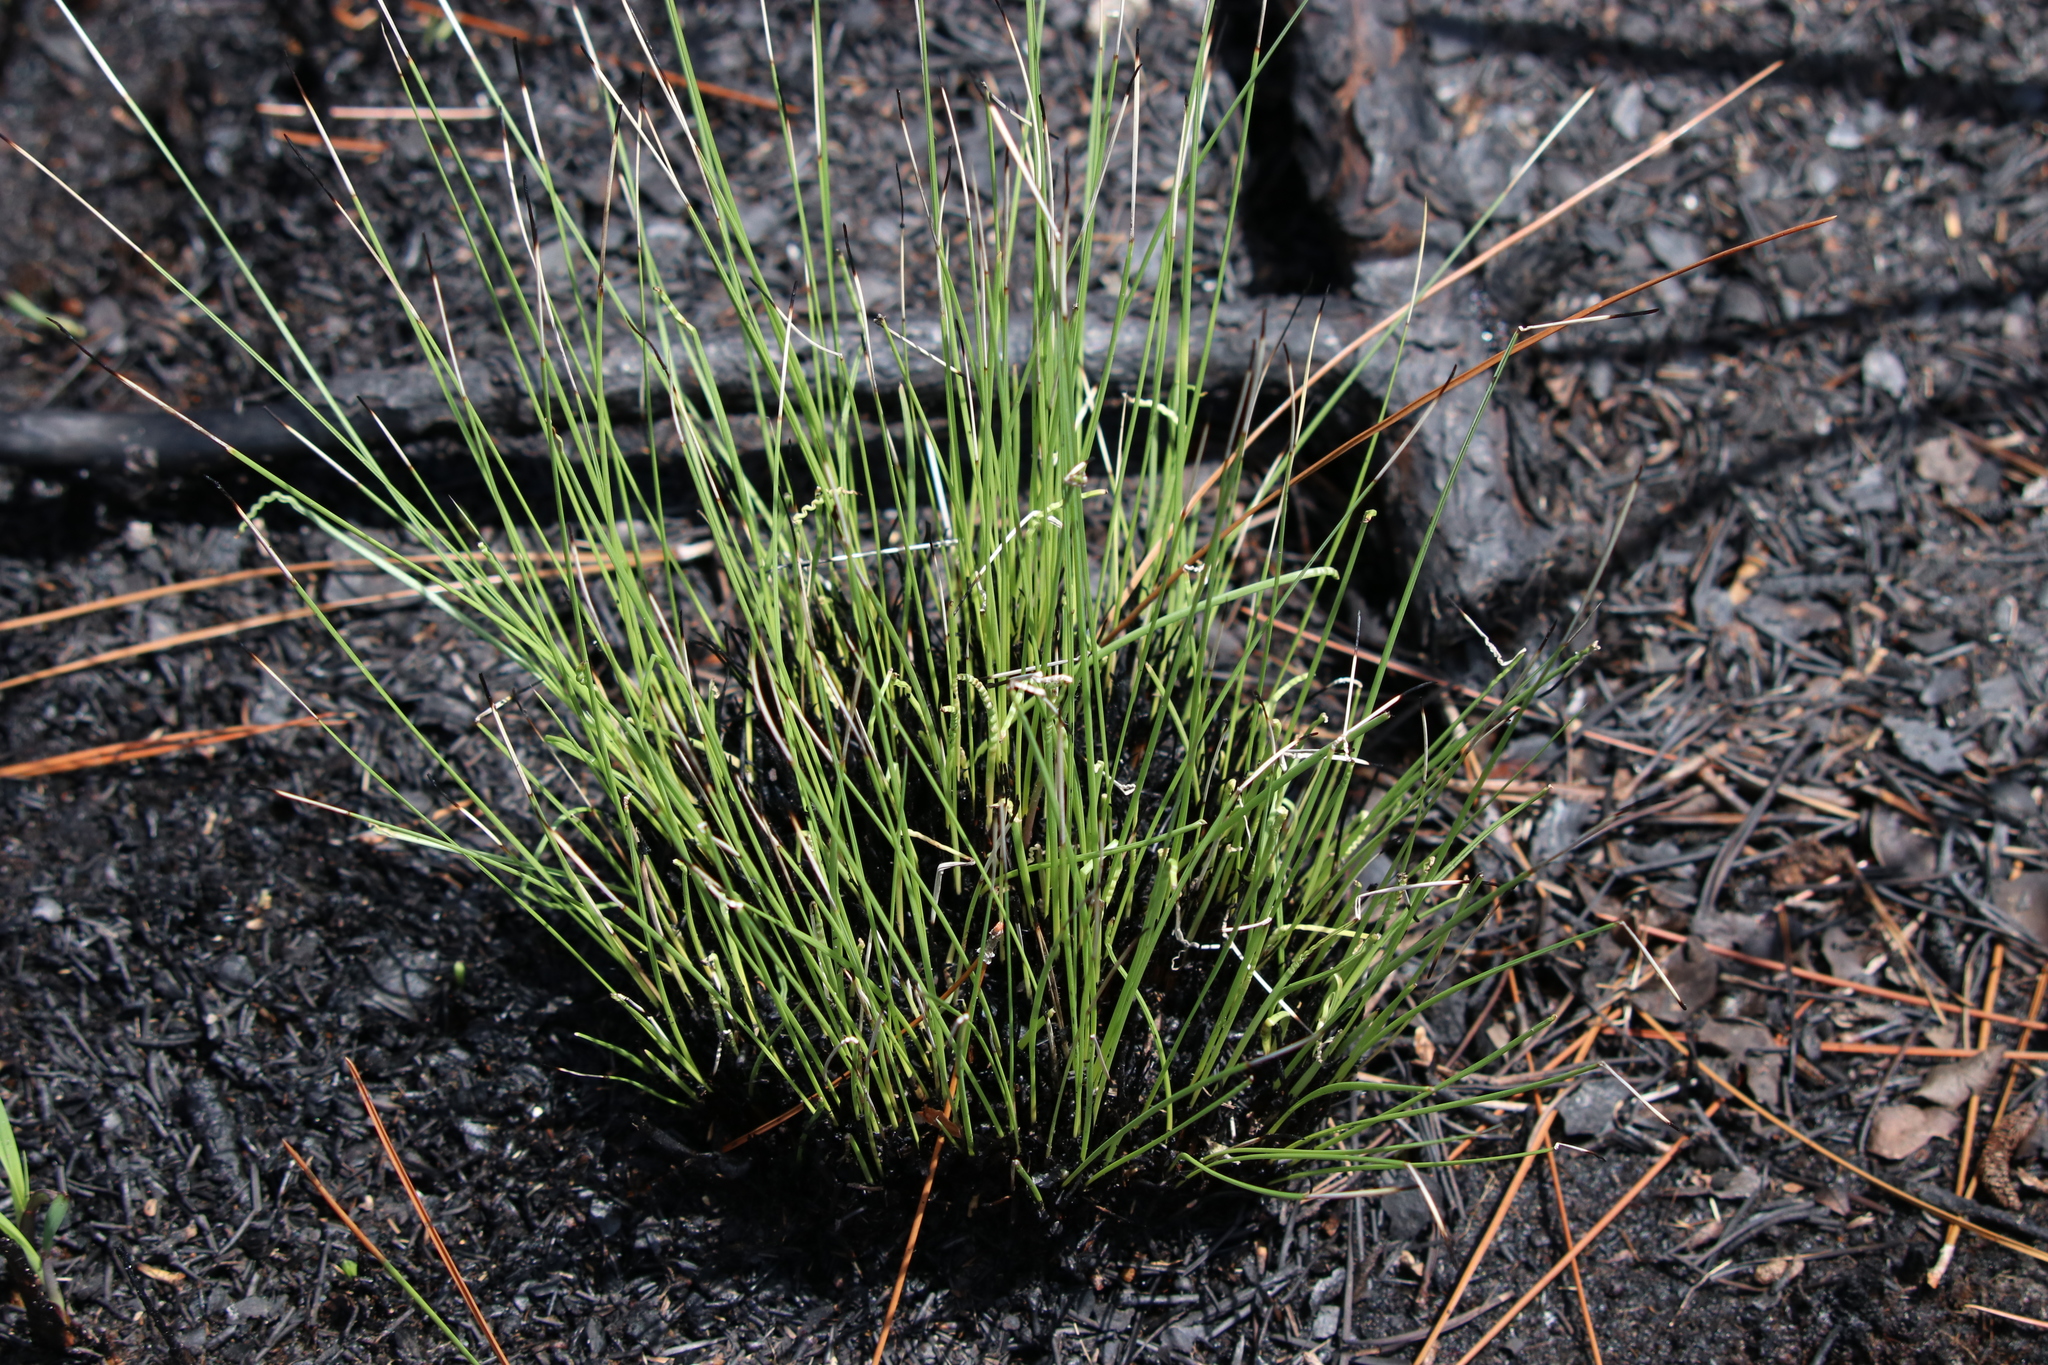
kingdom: Plantae
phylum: Tracheophyta
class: Liliopsida
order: Poales
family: Poaceae
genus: Aristida
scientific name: Aristida beyrichiana
